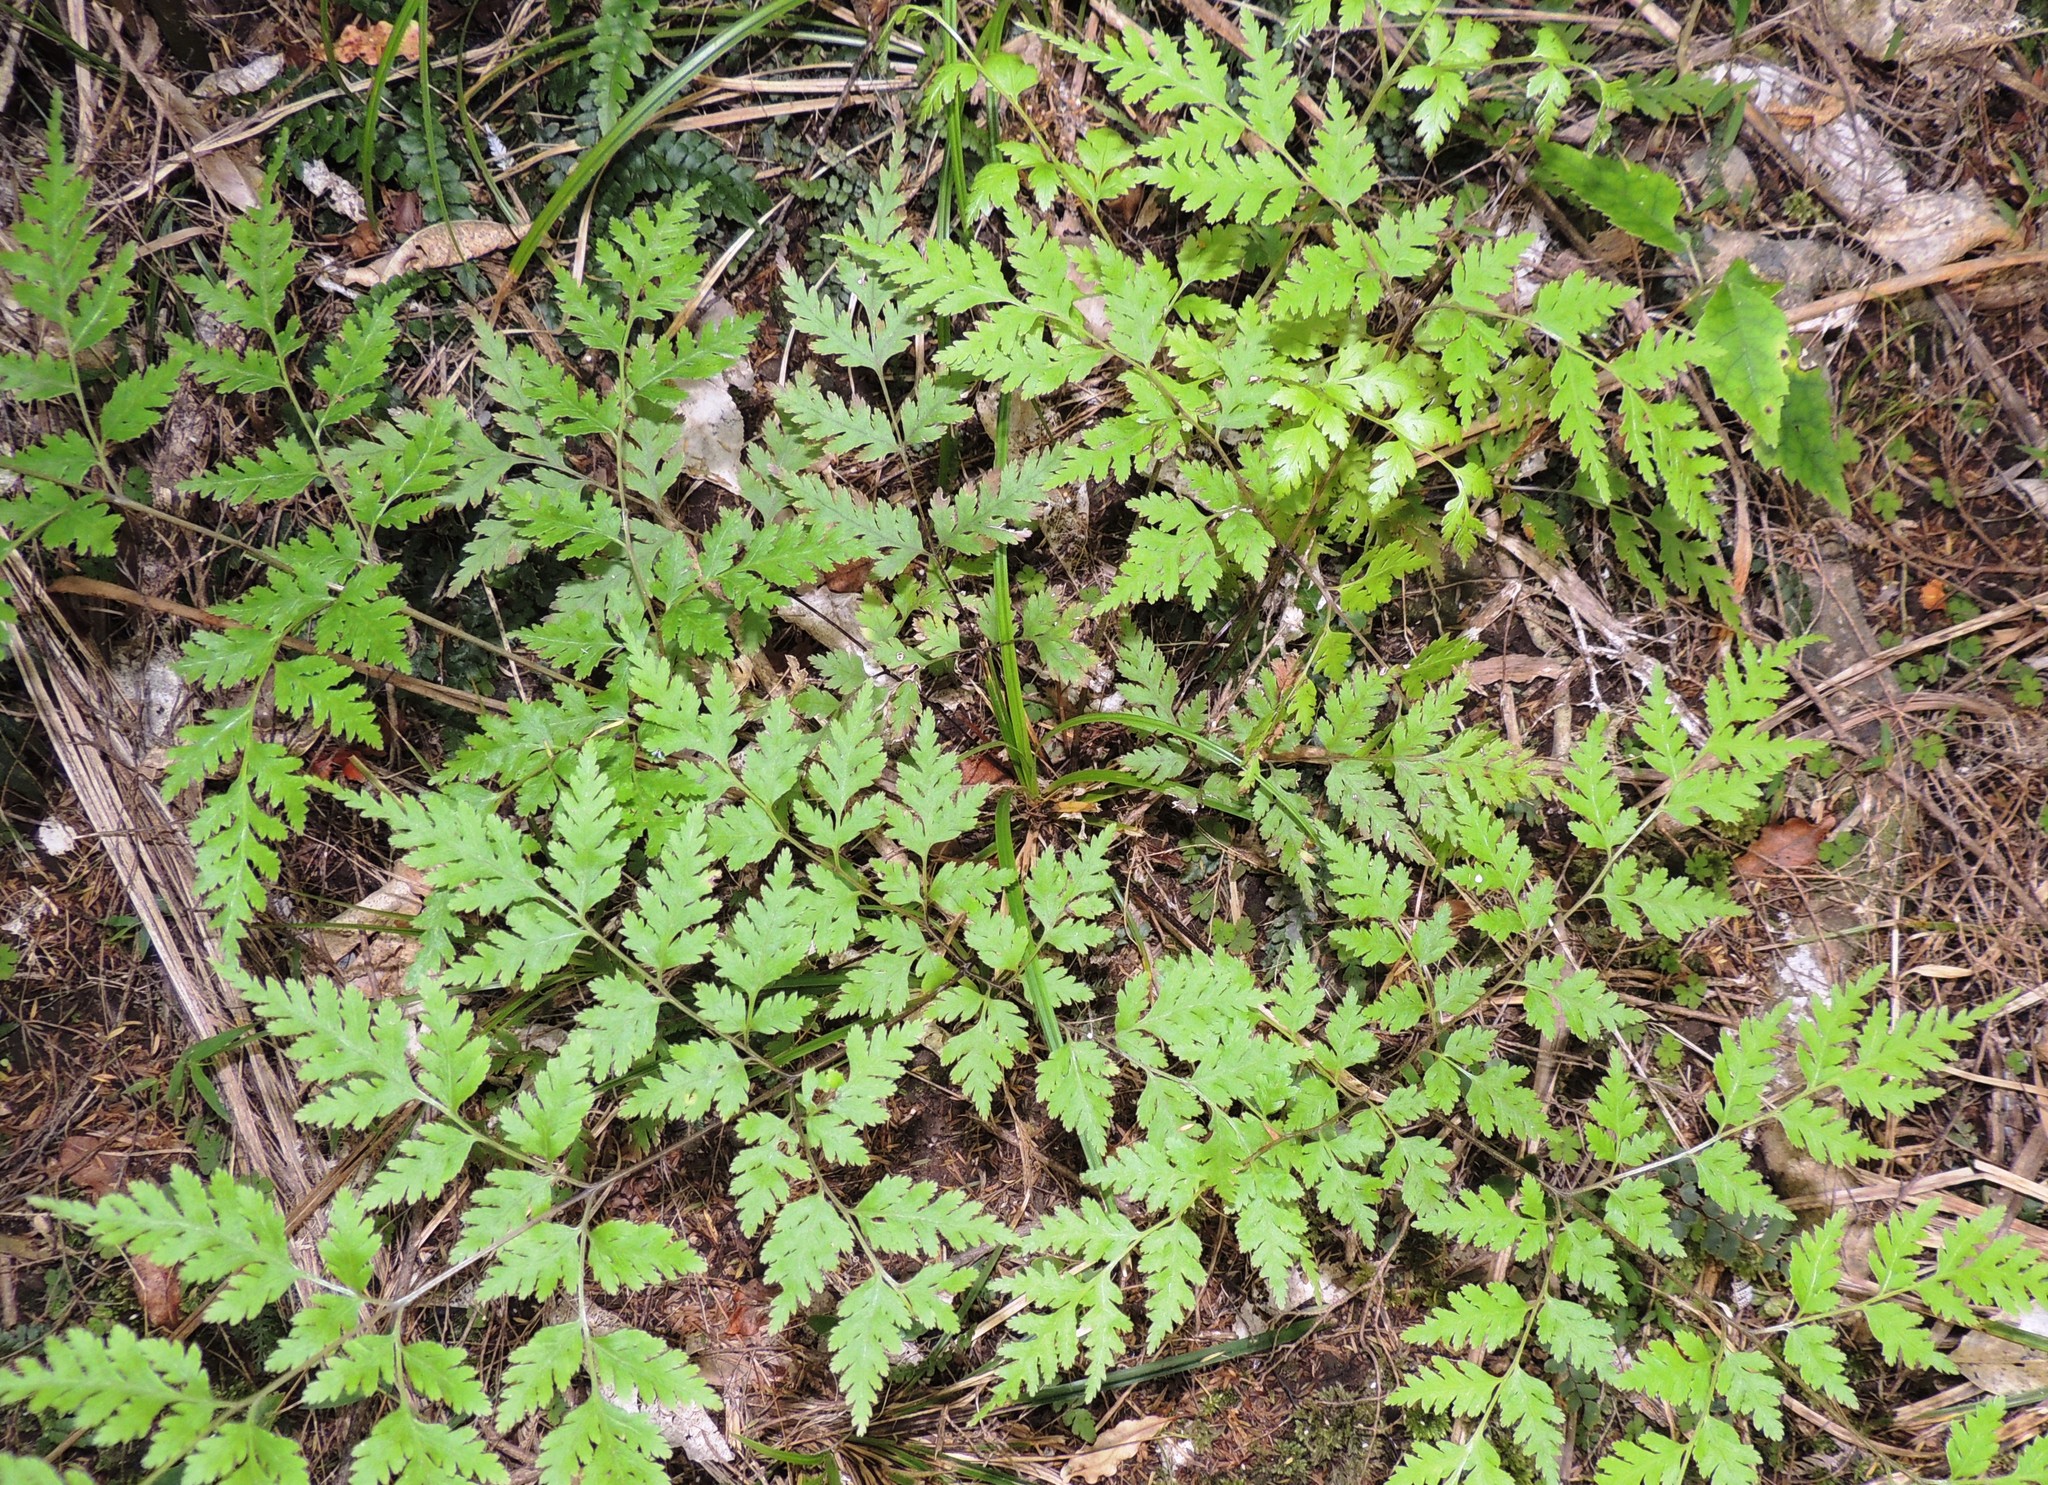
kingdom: Plantae
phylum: Tracheophyta
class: Polypodiopsida
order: Polypodiales
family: Pteridaceae
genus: Pteris
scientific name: Pteris macilenta
